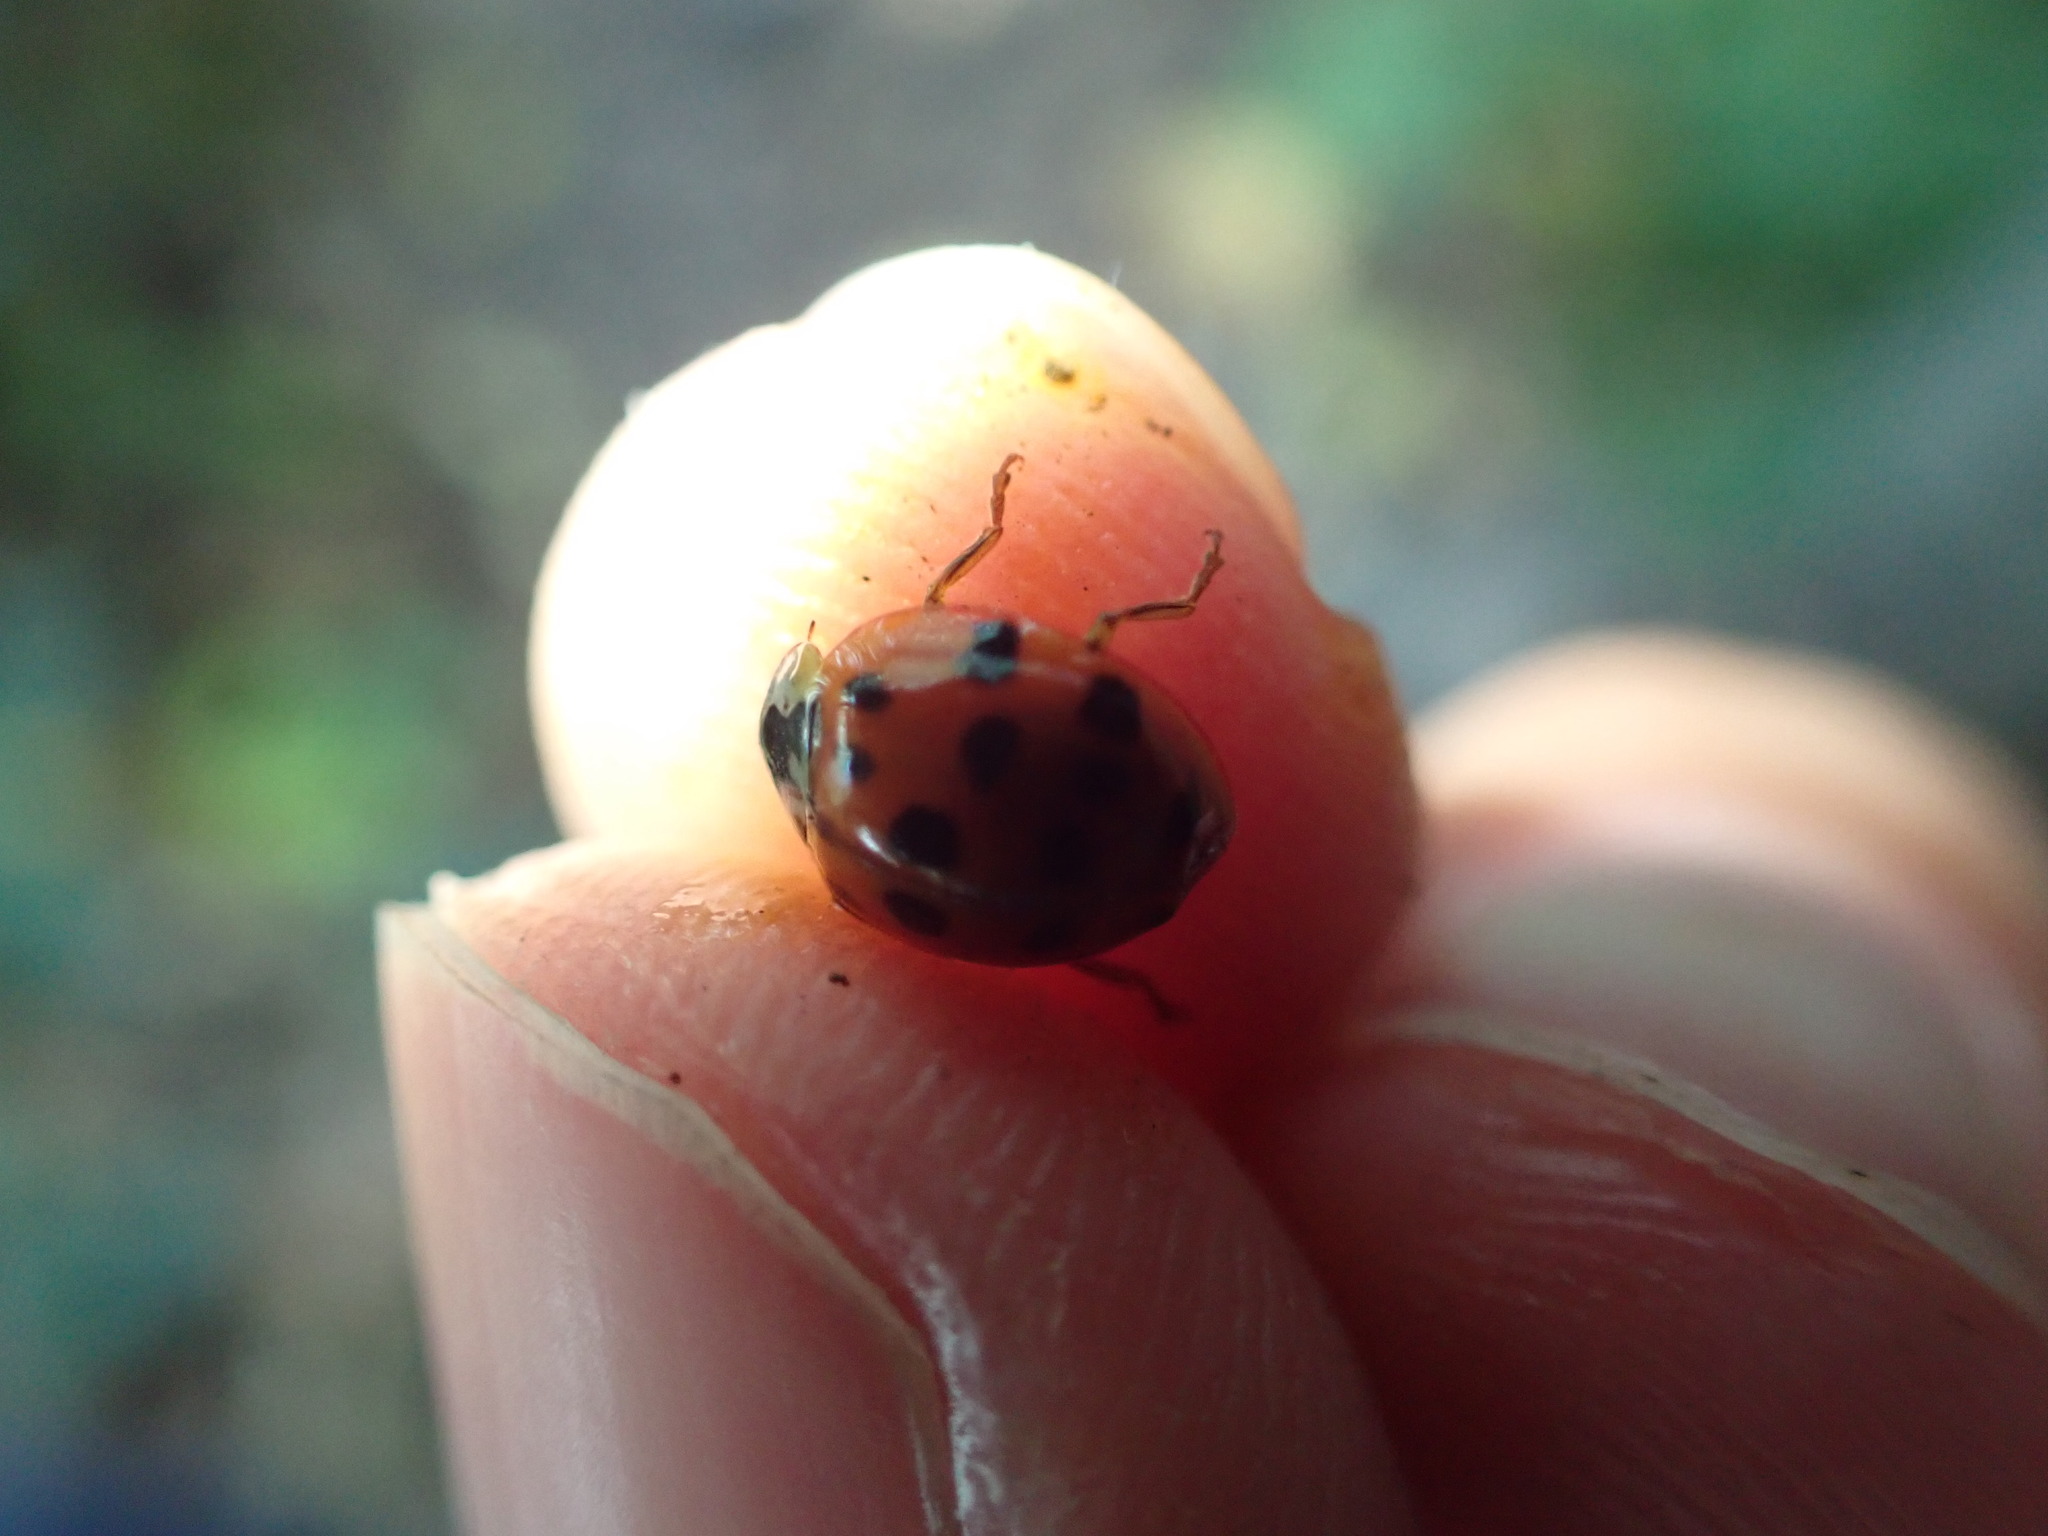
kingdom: Animalia
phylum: Arthropoda
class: Insecta
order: Coleoptera
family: Coccinellidae
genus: Harmonia
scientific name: Harmonia axyridis
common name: Harlequin ladybird
